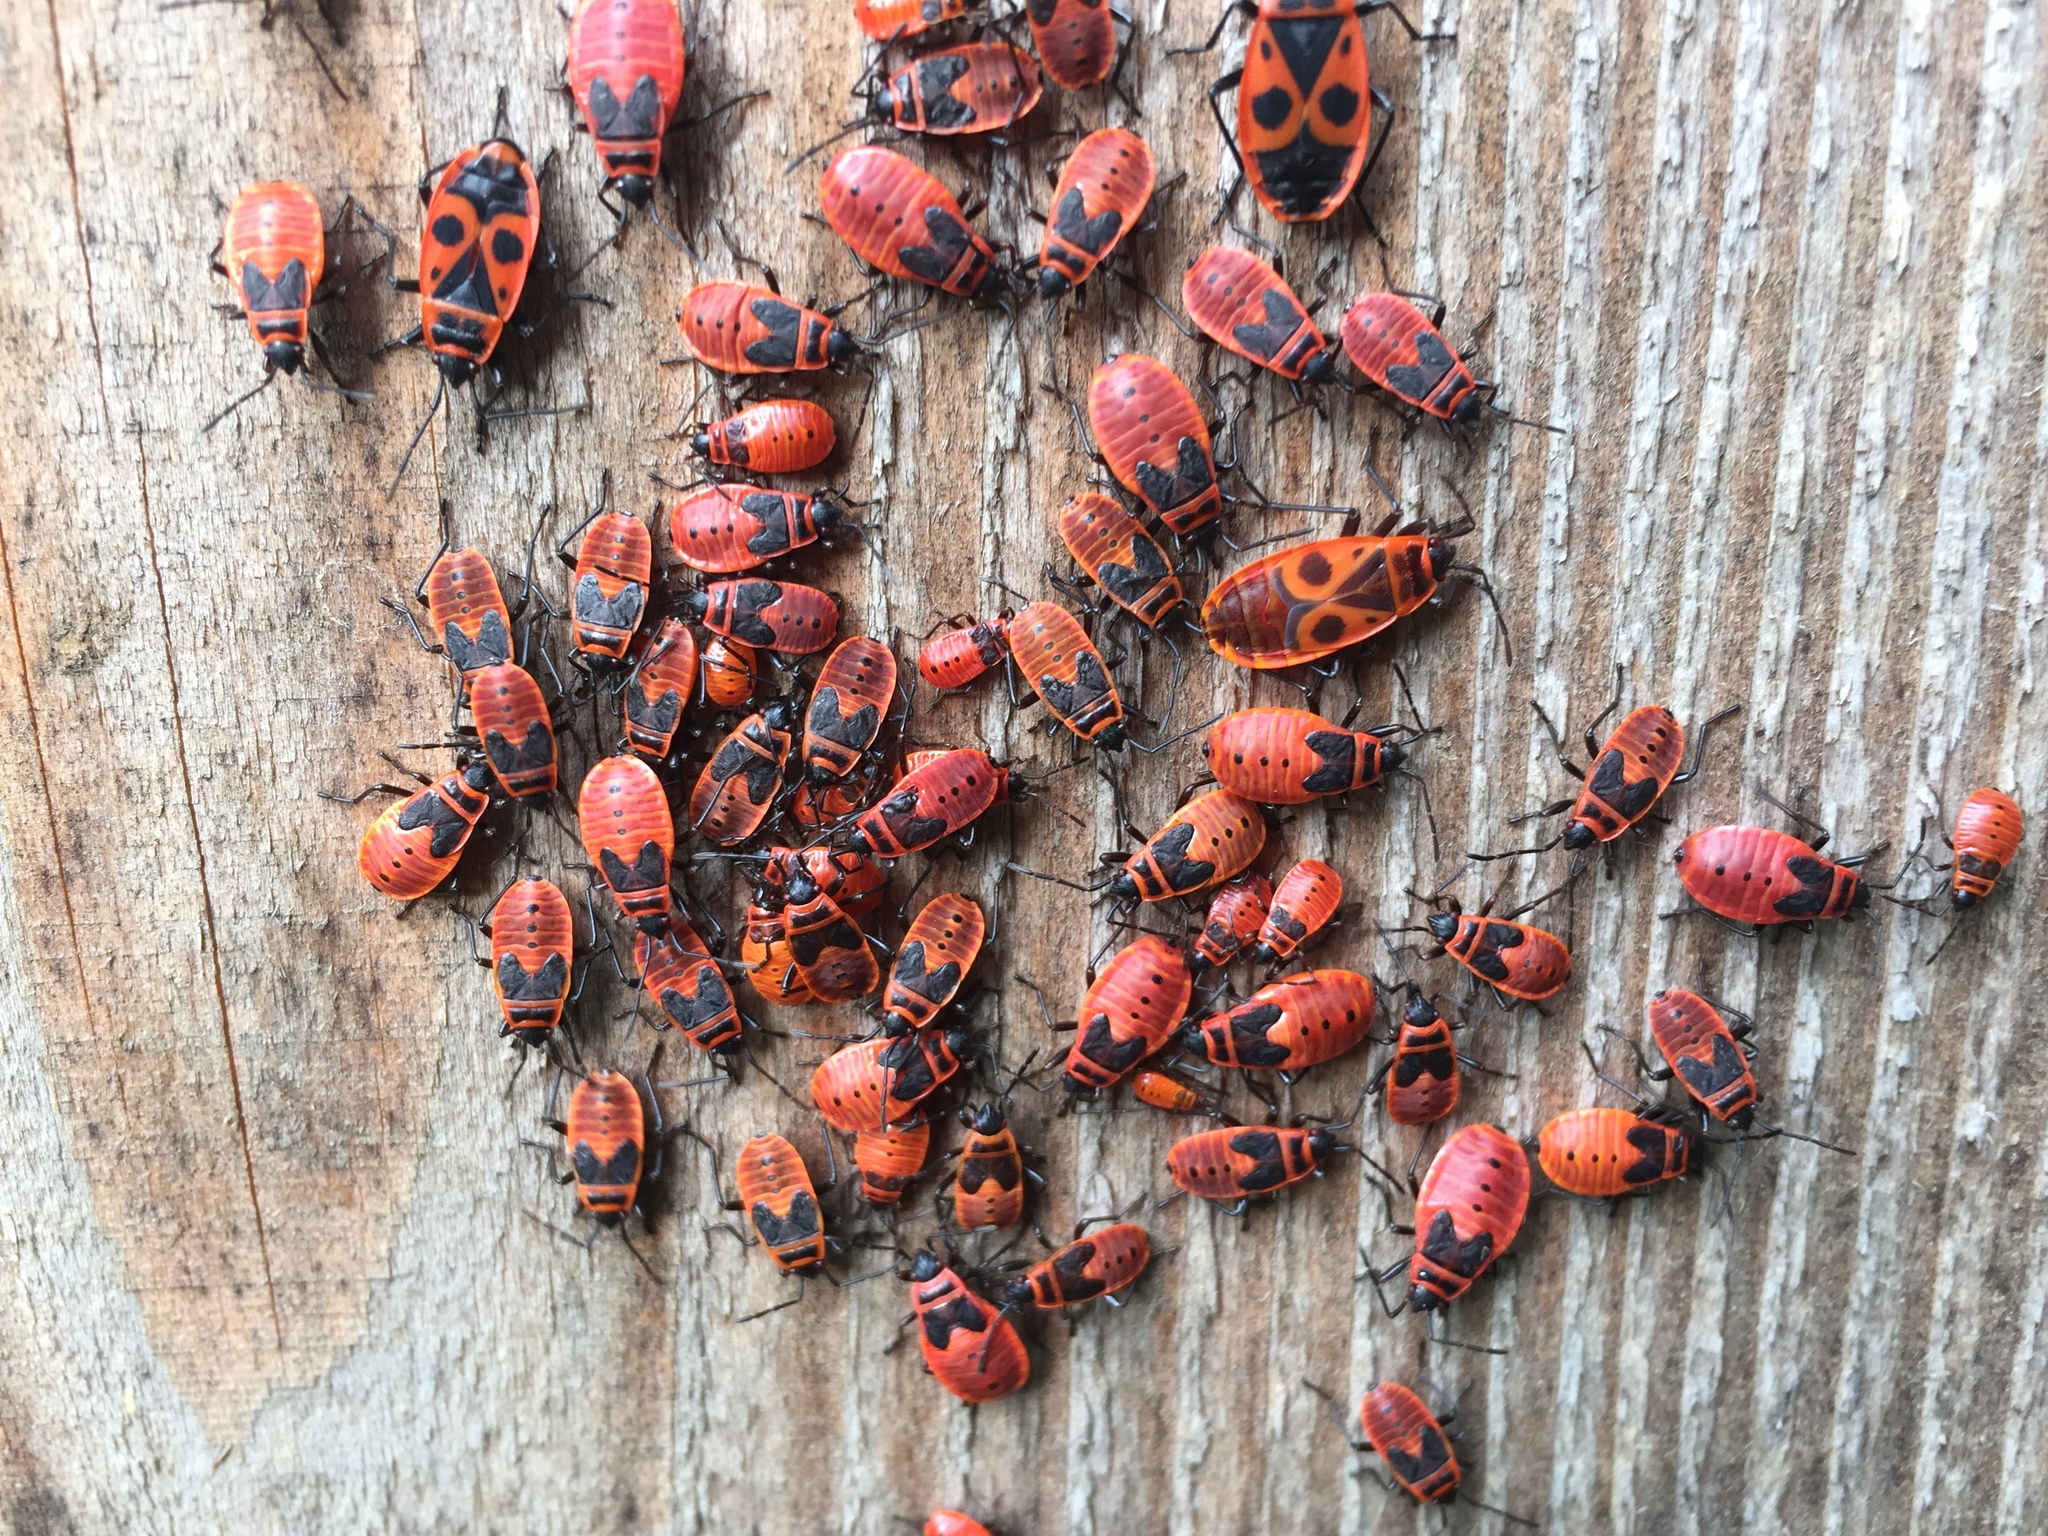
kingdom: Animalia
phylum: Arthropoda
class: Insecta
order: Hemiptera
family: Pyrrhocoridae
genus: Pyrrhocoris
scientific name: Pyrrhocoris apterus
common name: Firebug
